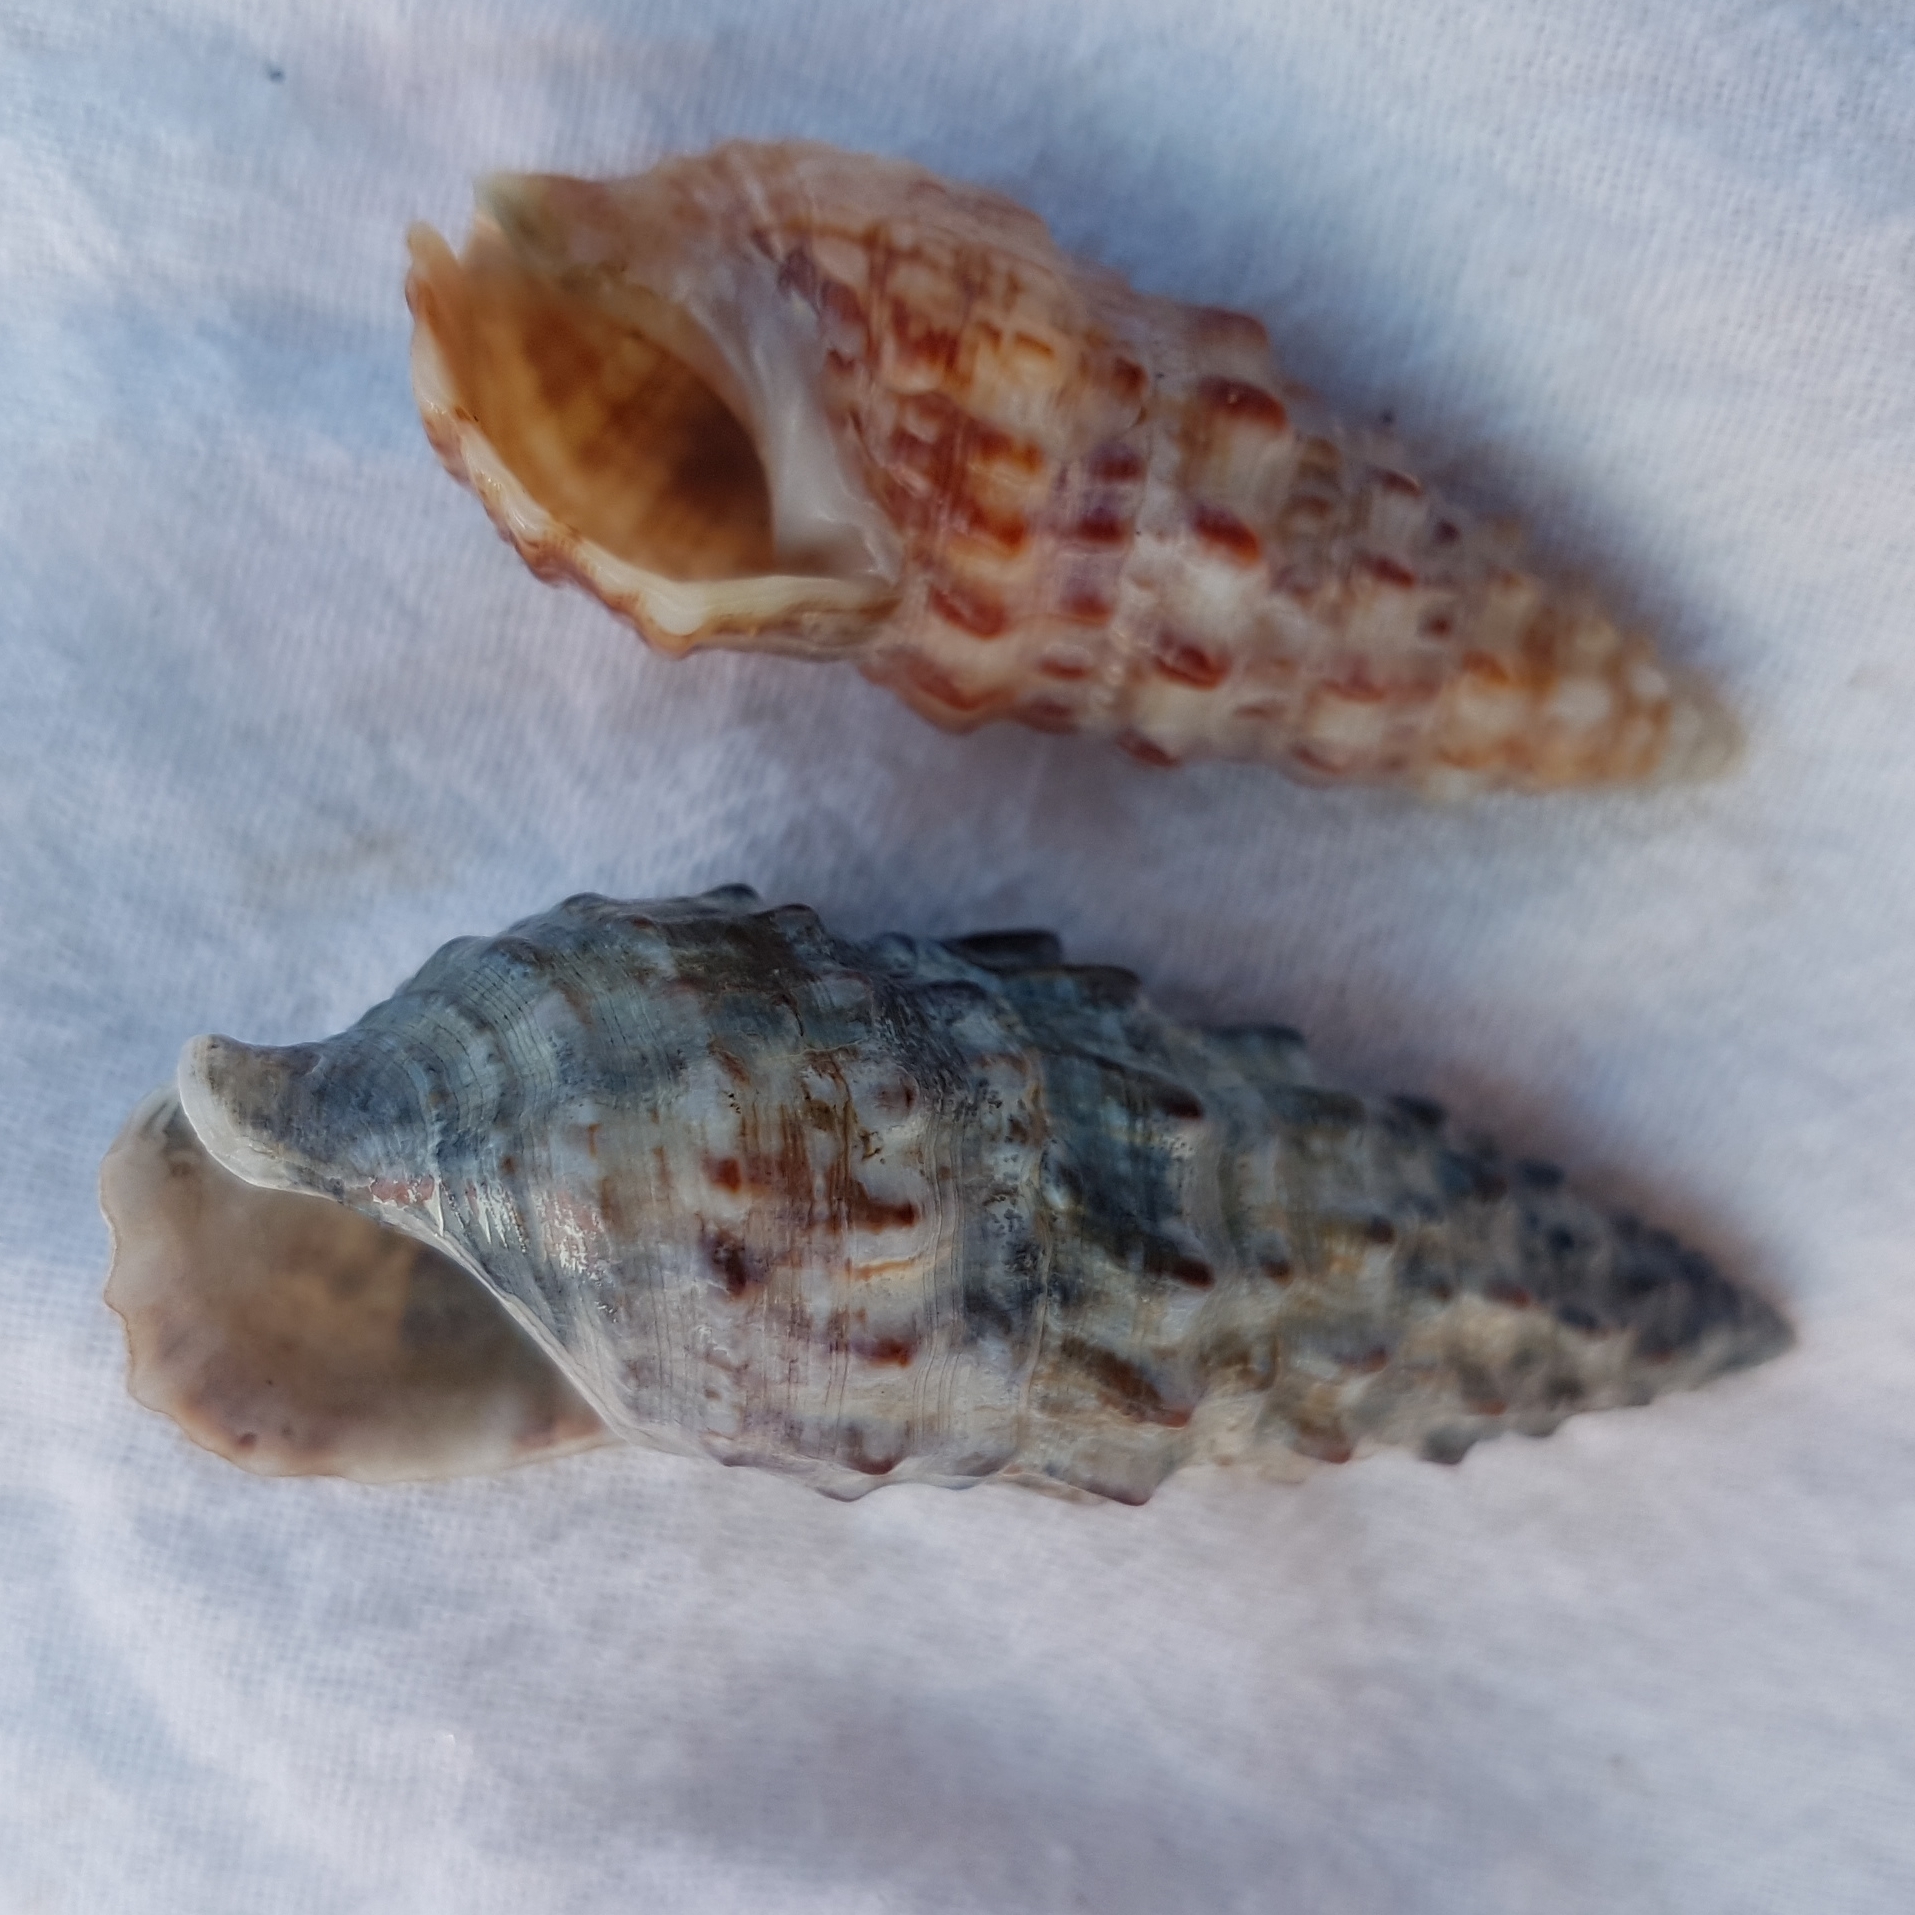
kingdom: Animalia
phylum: Mollusca
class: Gastropoda
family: Cerithiidae
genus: Cerithium
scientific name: Cerithium vulgatum
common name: European cerith
